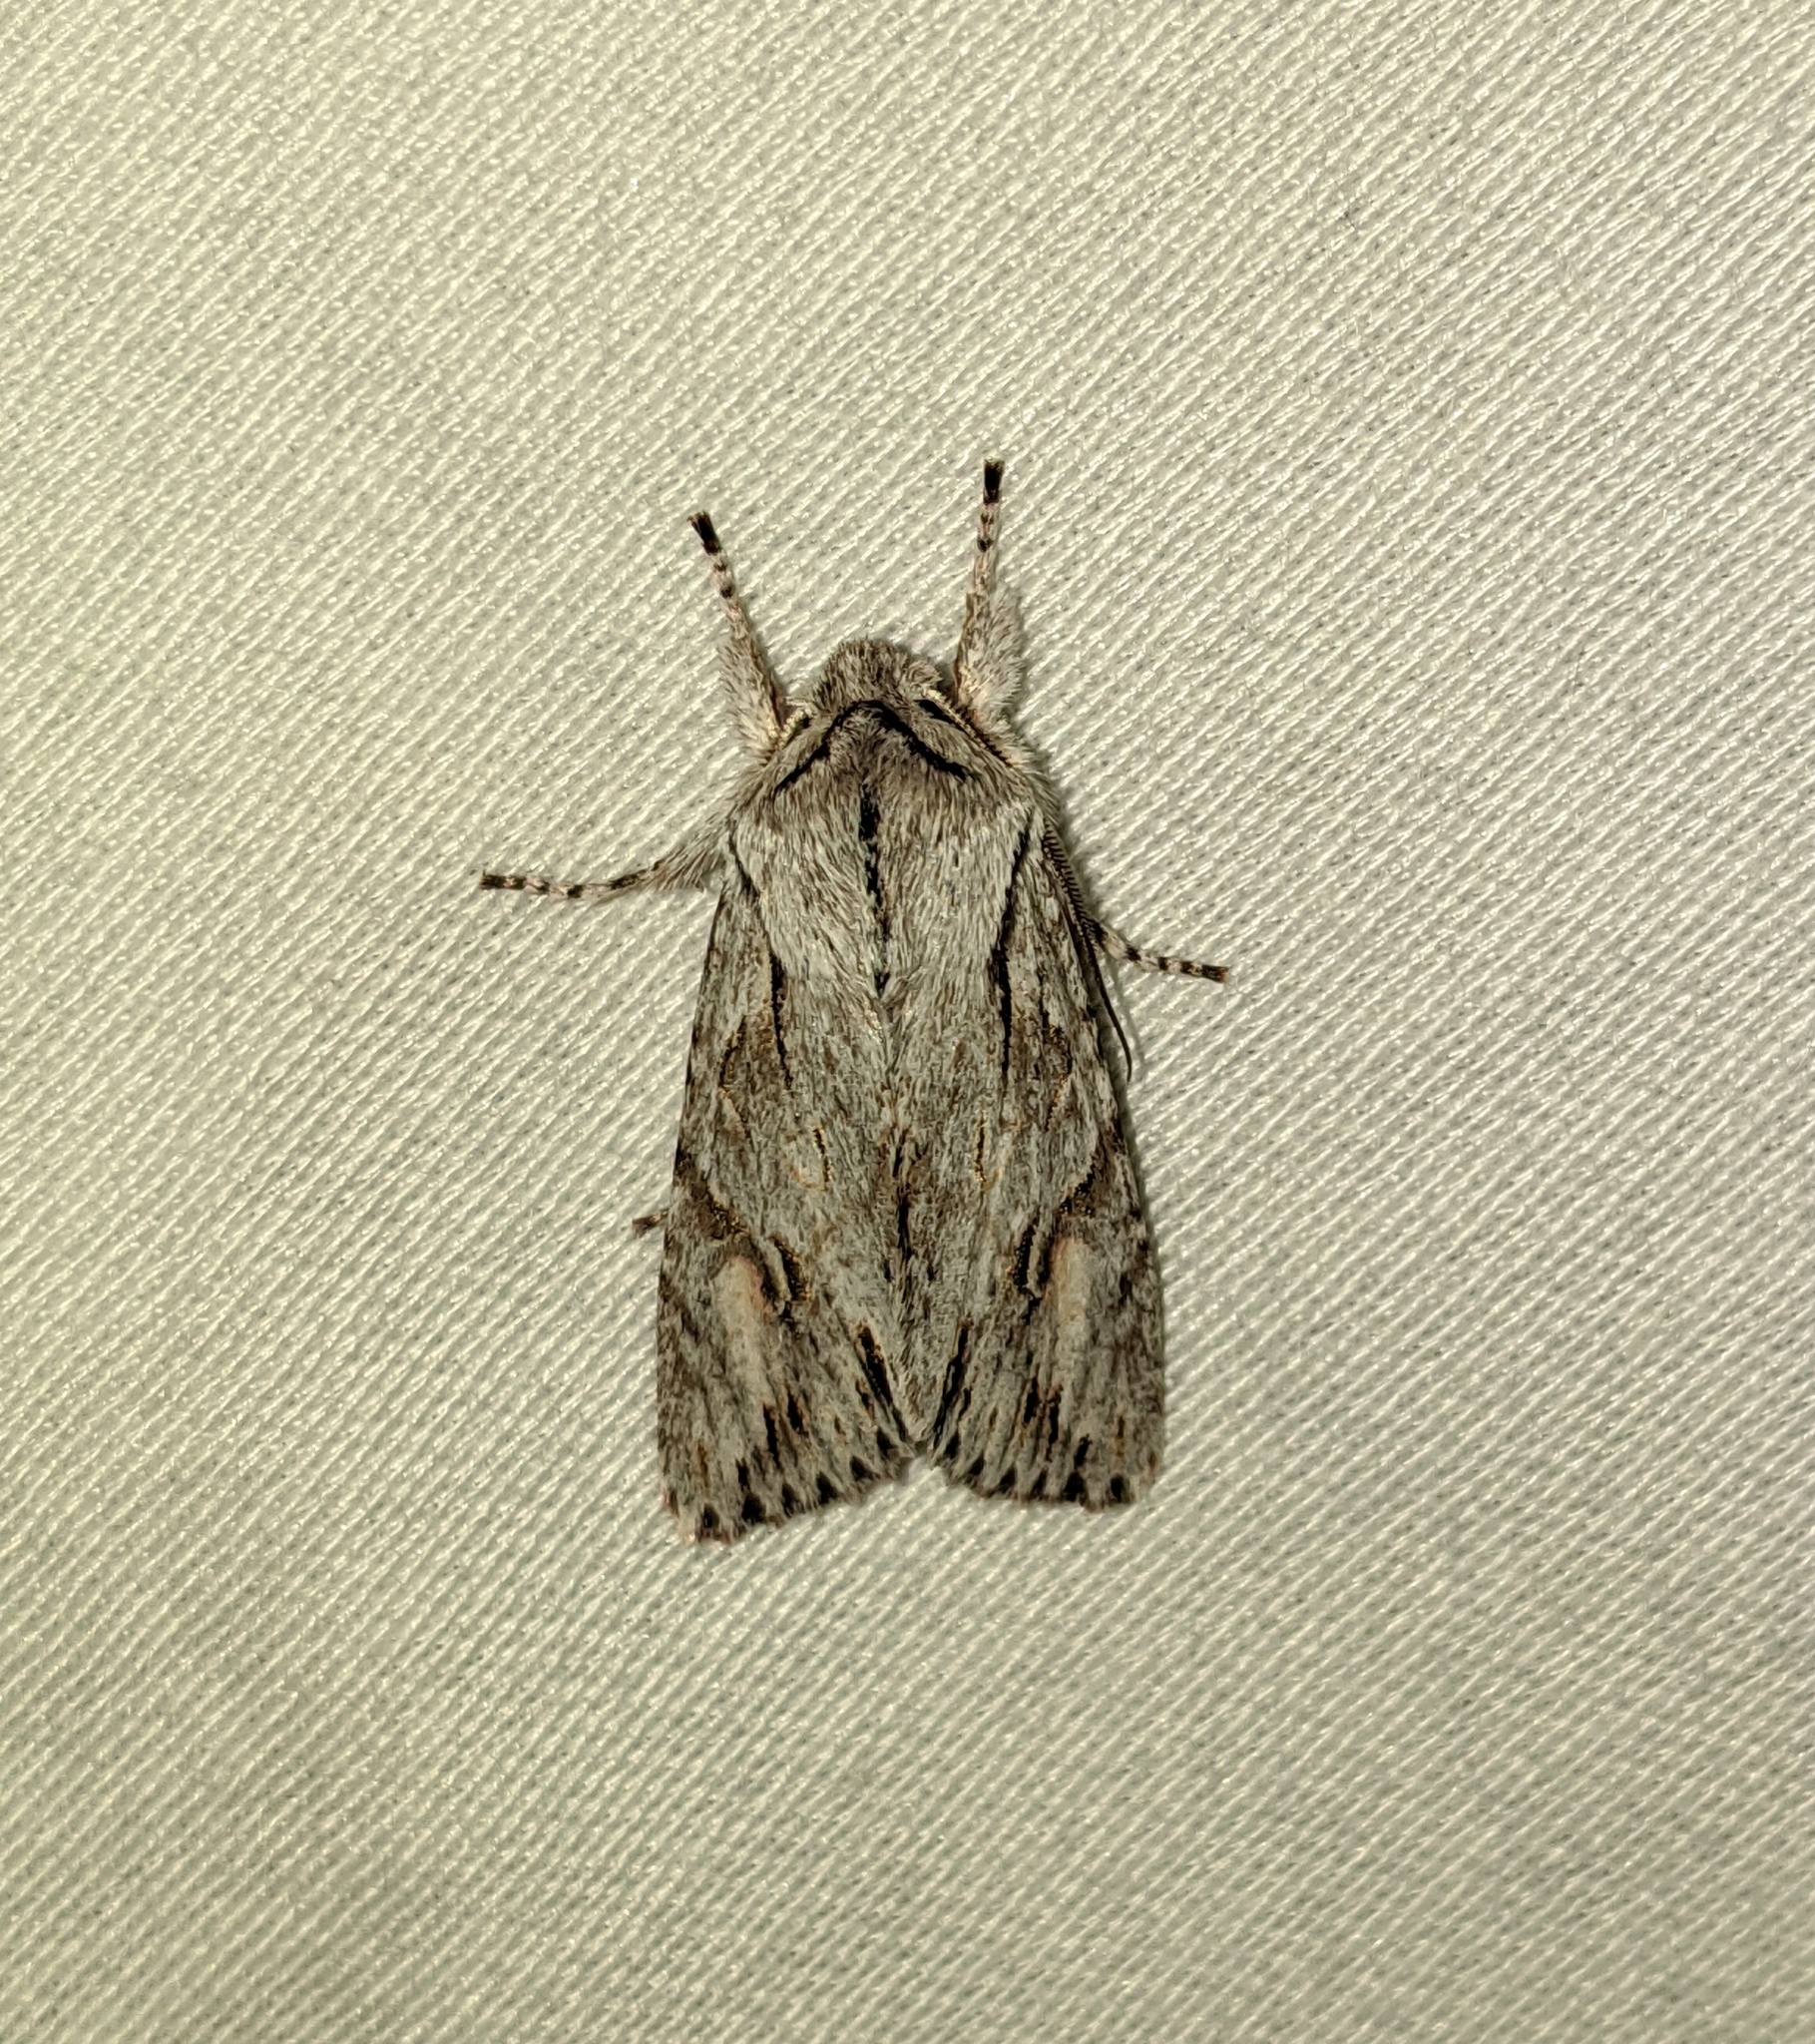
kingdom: Animalia
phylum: Arthropoda
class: Insecta
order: Lepidoptera
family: Noctuidae
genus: Egira
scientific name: Egira crucialis
